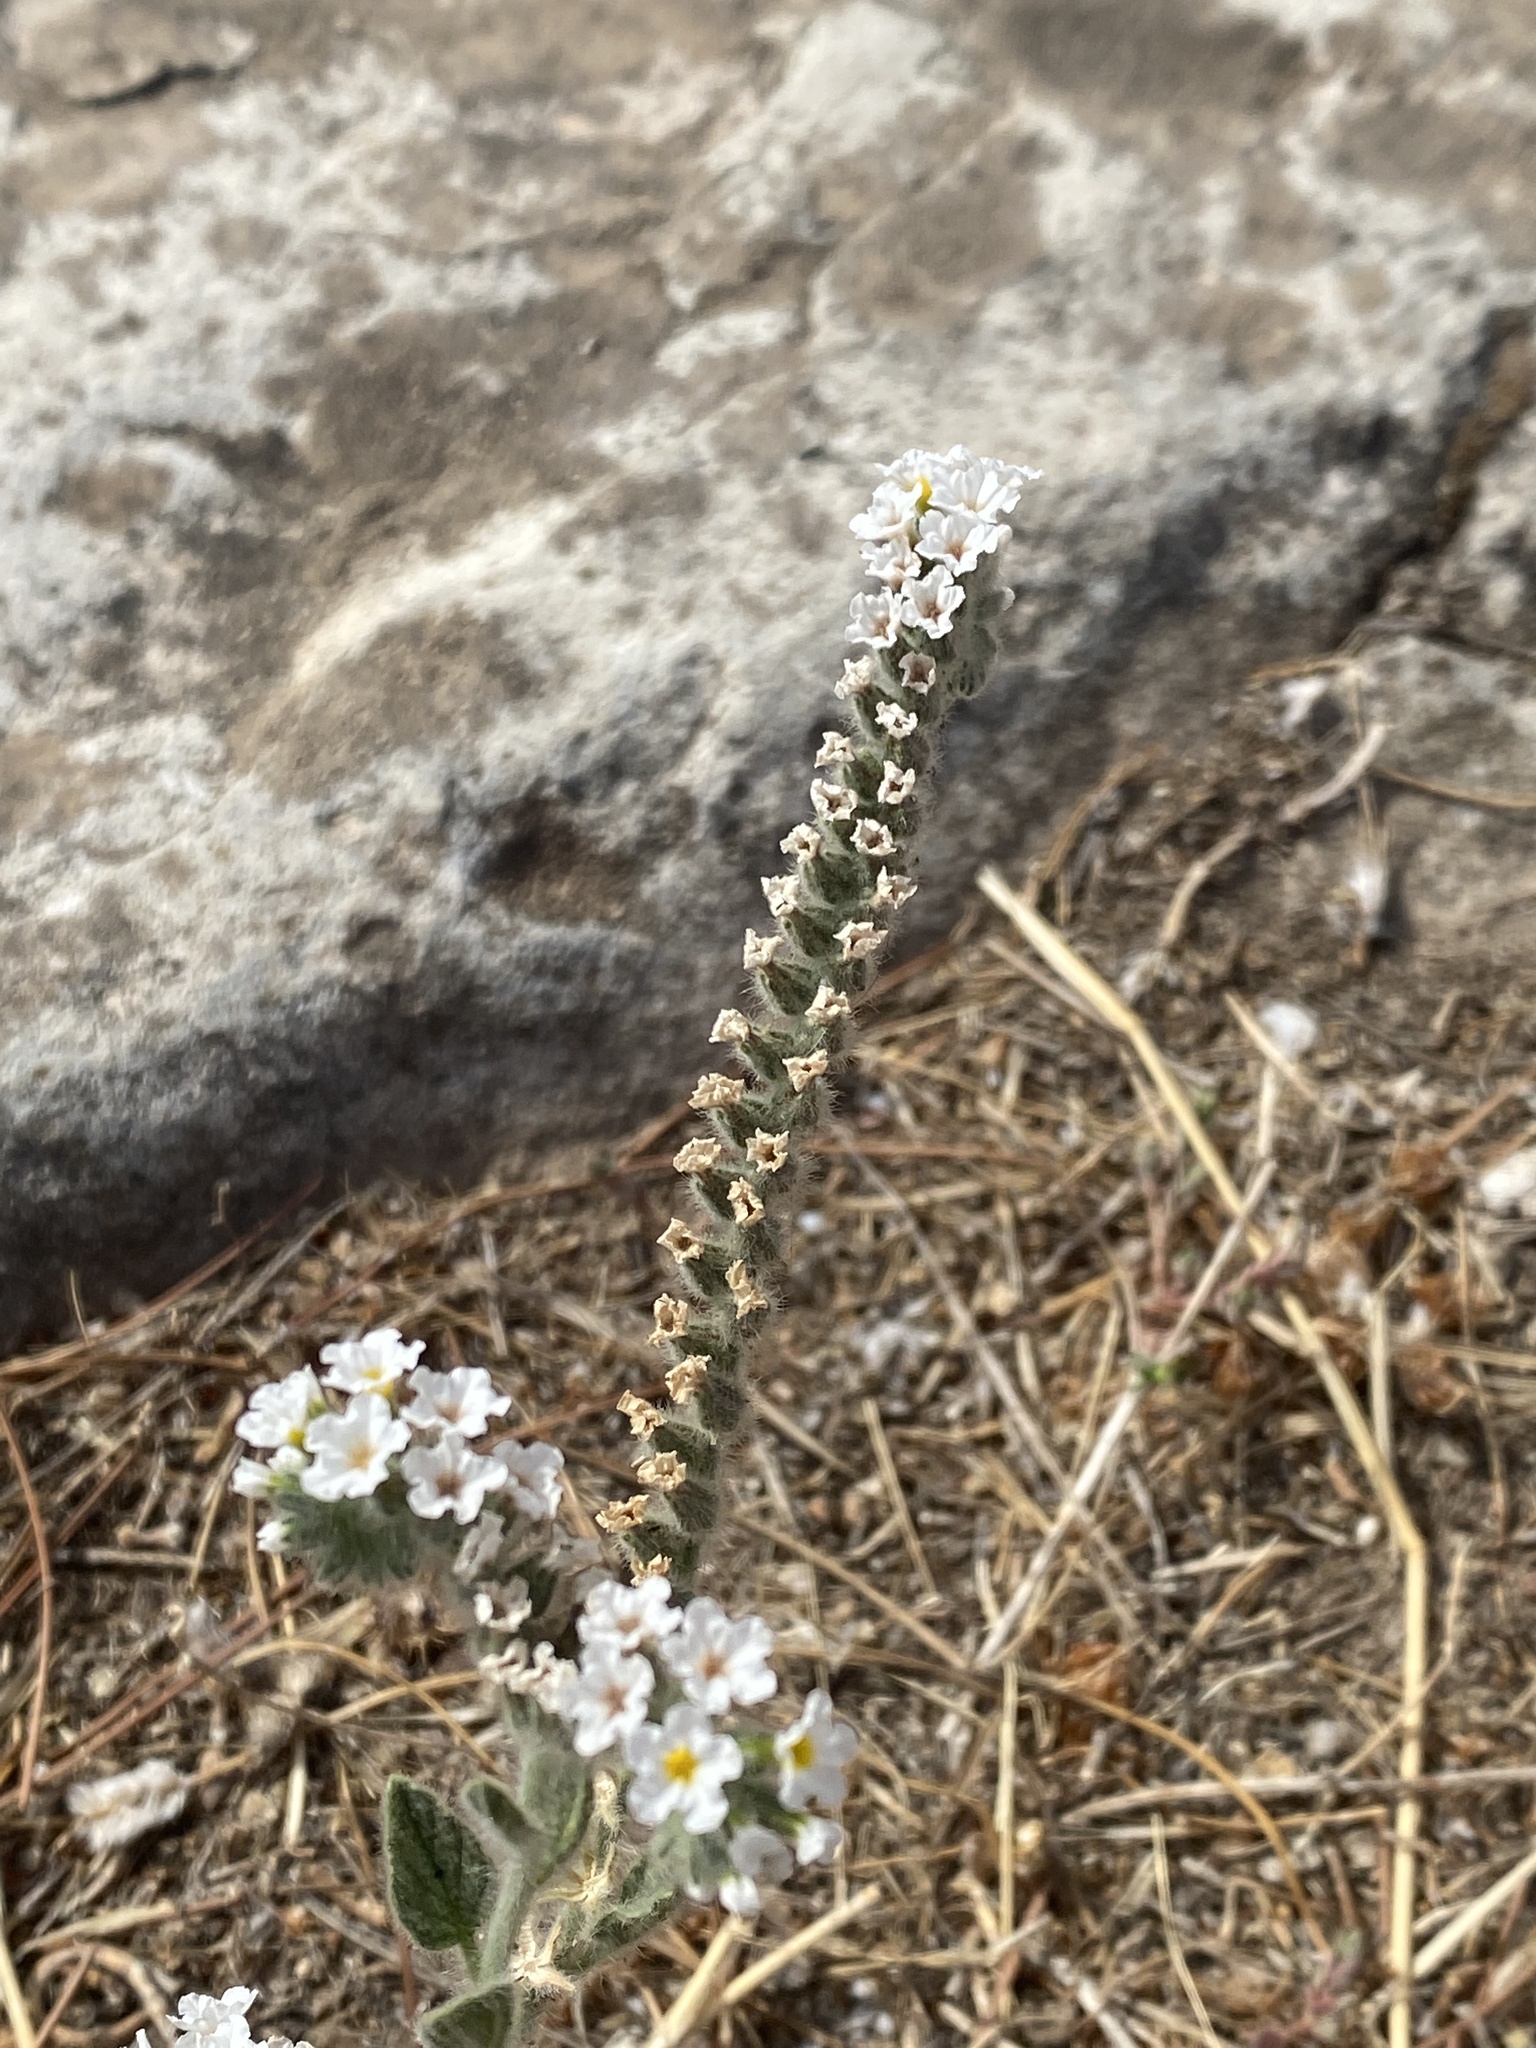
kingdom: Plantae
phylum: Tracheophyta
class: Magnoliopsida
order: Boraginales
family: Heliotropiaceae
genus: Heliotropium
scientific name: Heliotropium europaeum
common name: European heliotrope
